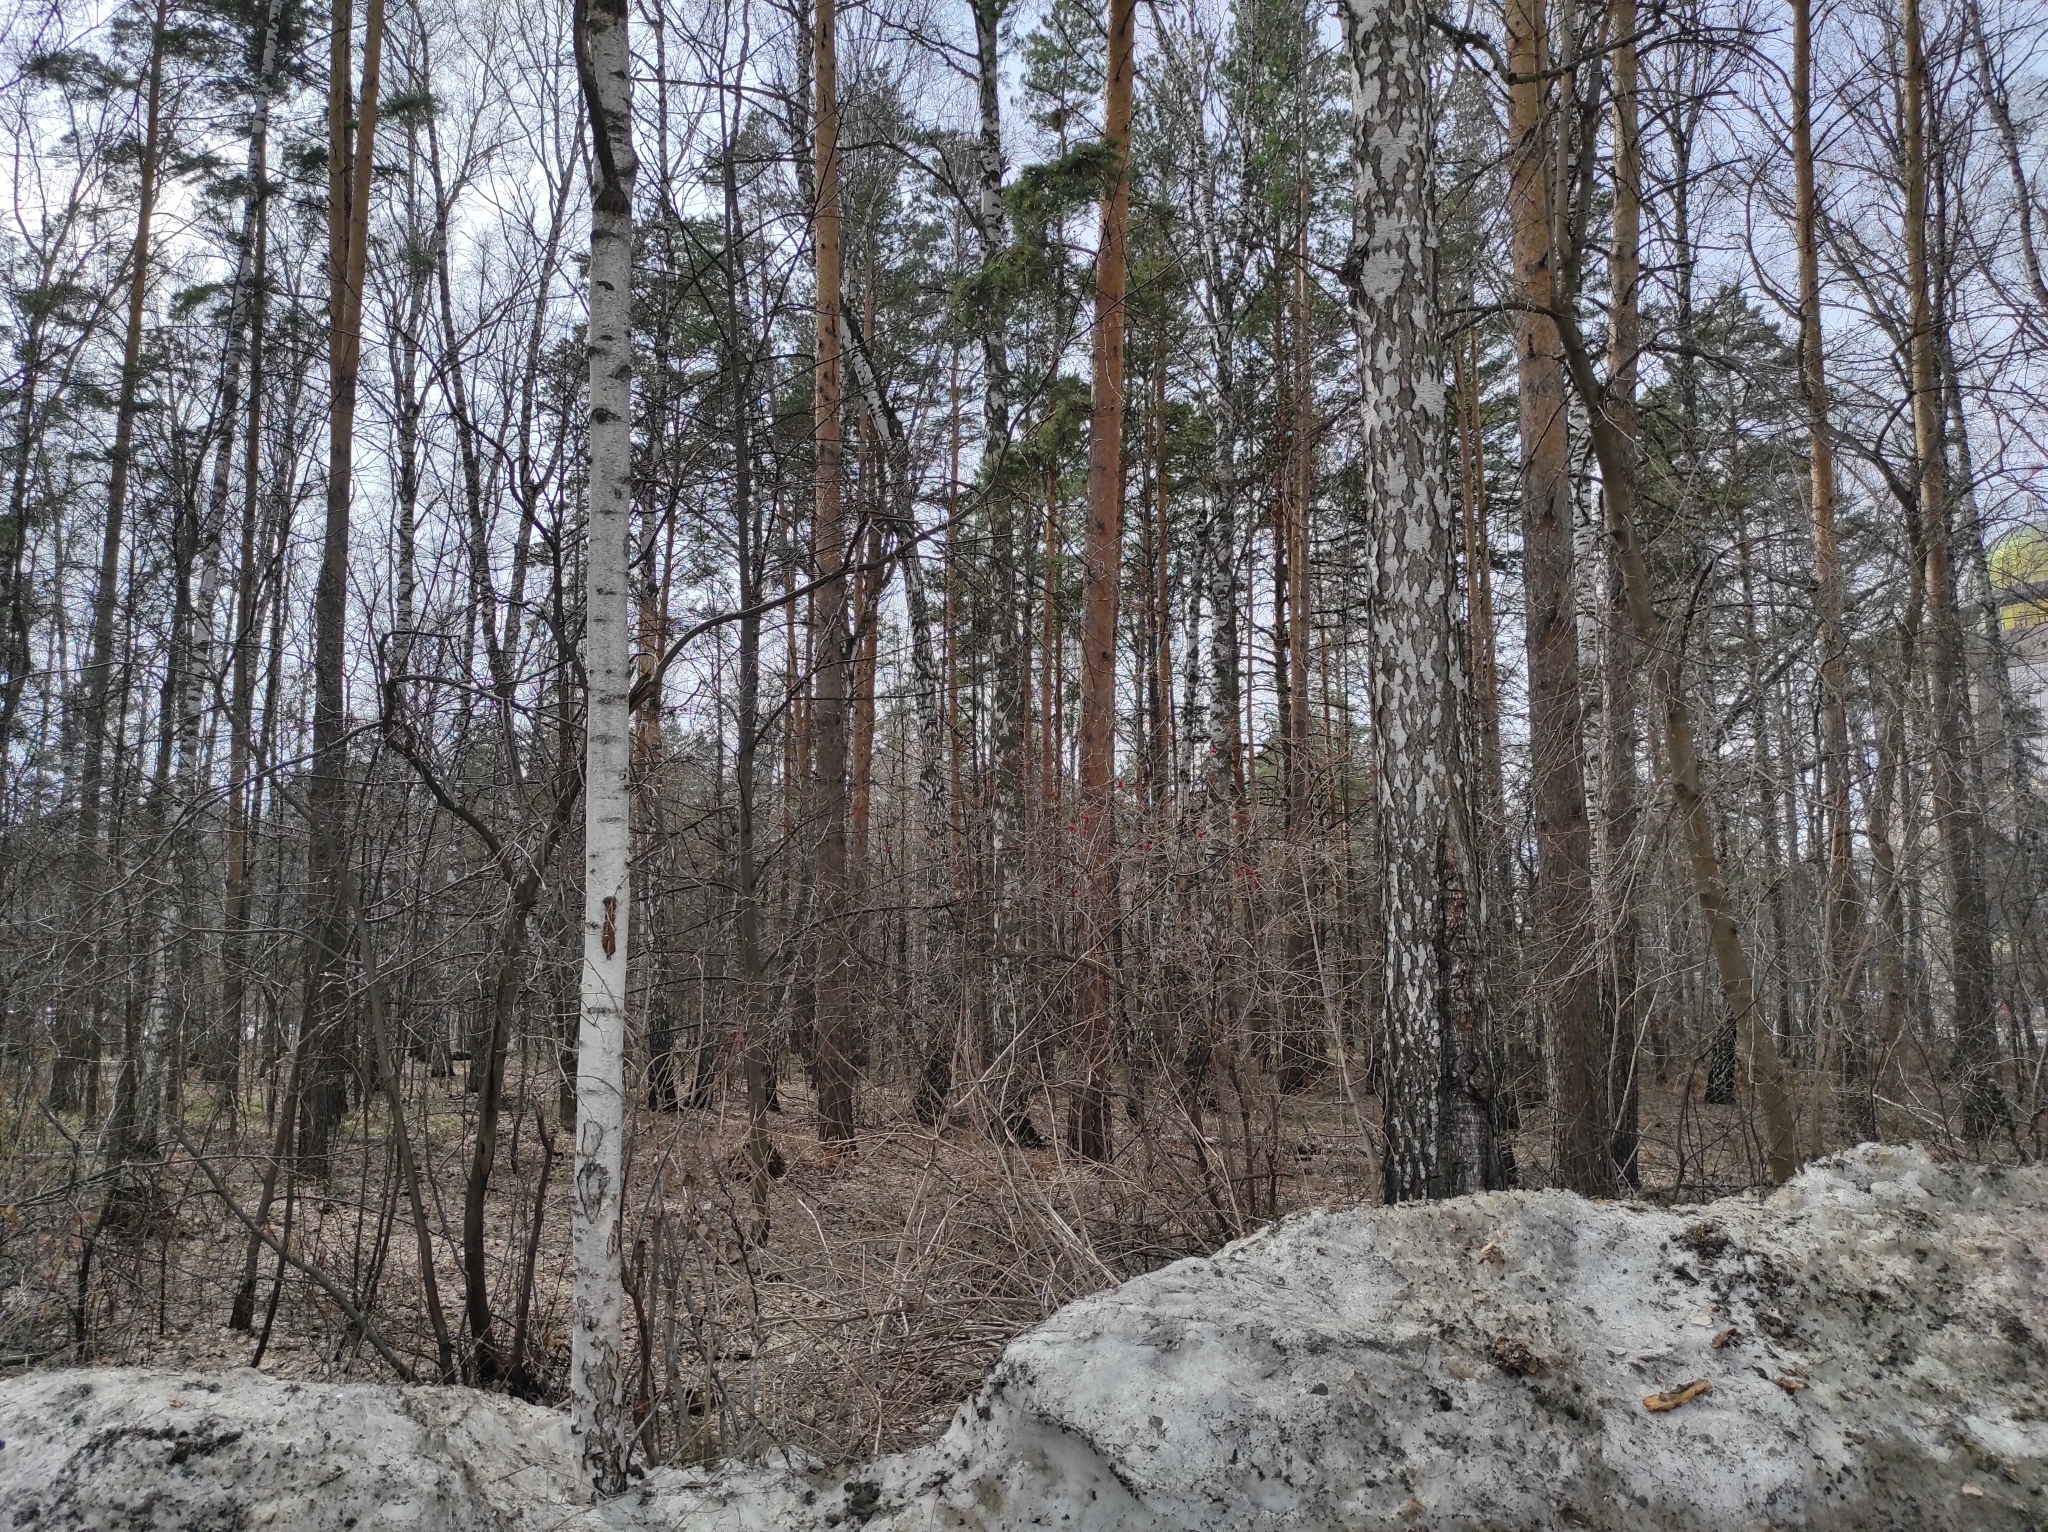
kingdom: Plantae
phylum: Tracheophyta
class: Pinopsida
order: Pinales
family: Pinaceae
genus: Pinus
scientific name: Pinus sylvestris
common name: Scots pine
